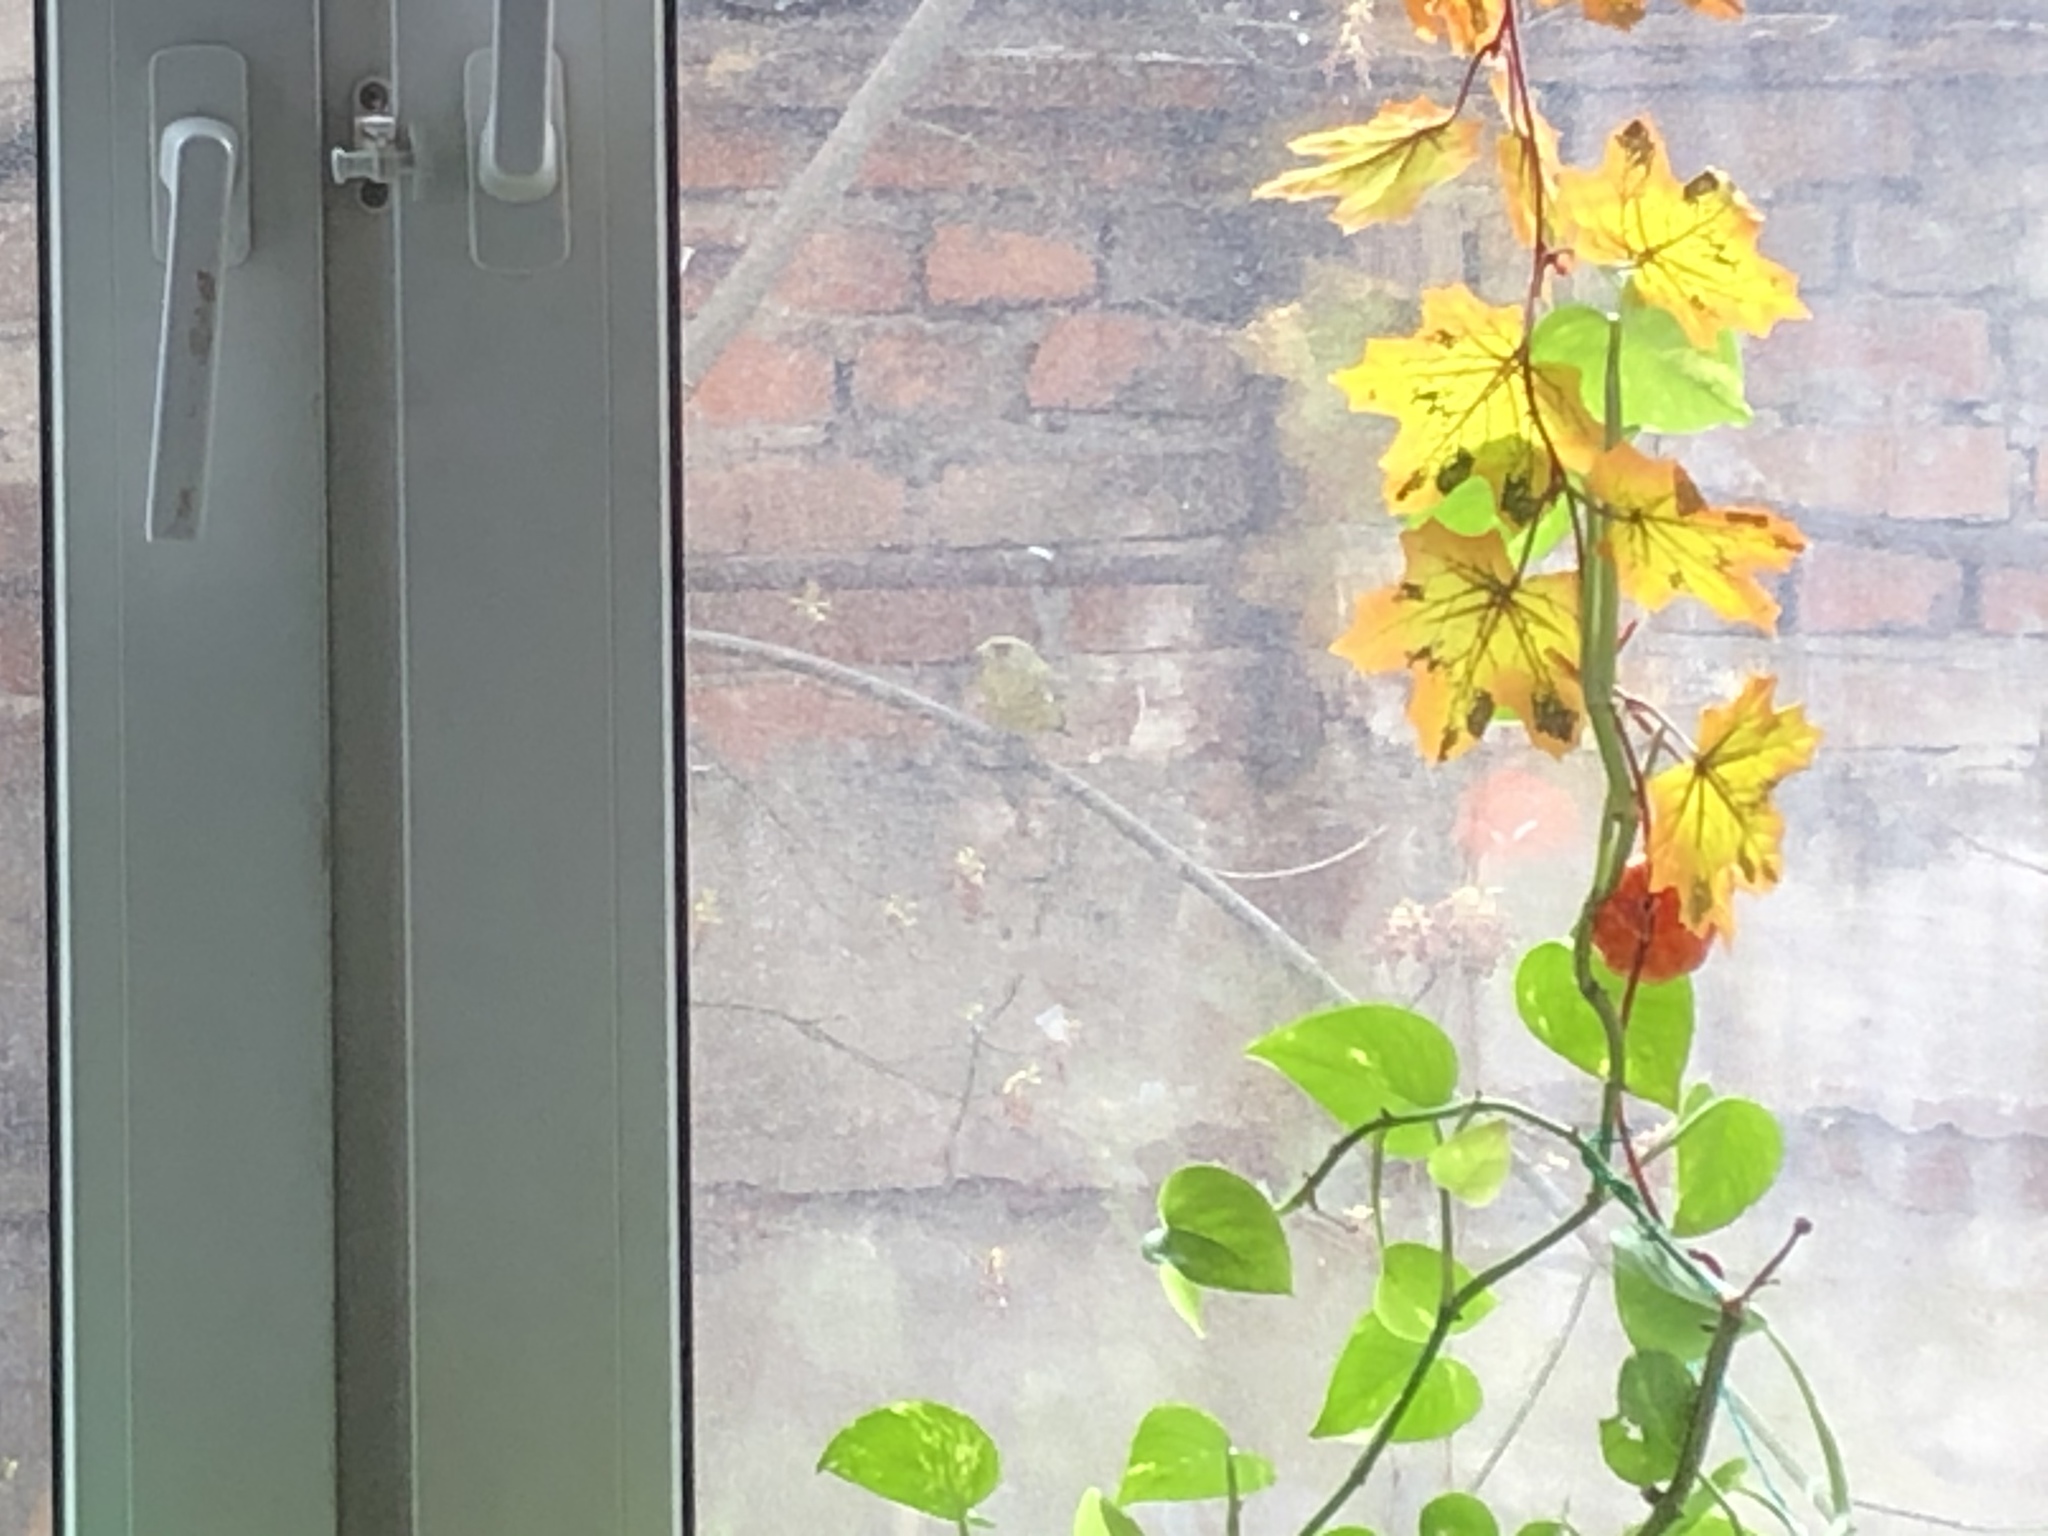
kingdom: Plantae
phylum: Tracheophyta
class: Liliopsida
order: Poales
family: Poaceae
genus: Chloris
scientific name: Chloris chloris
